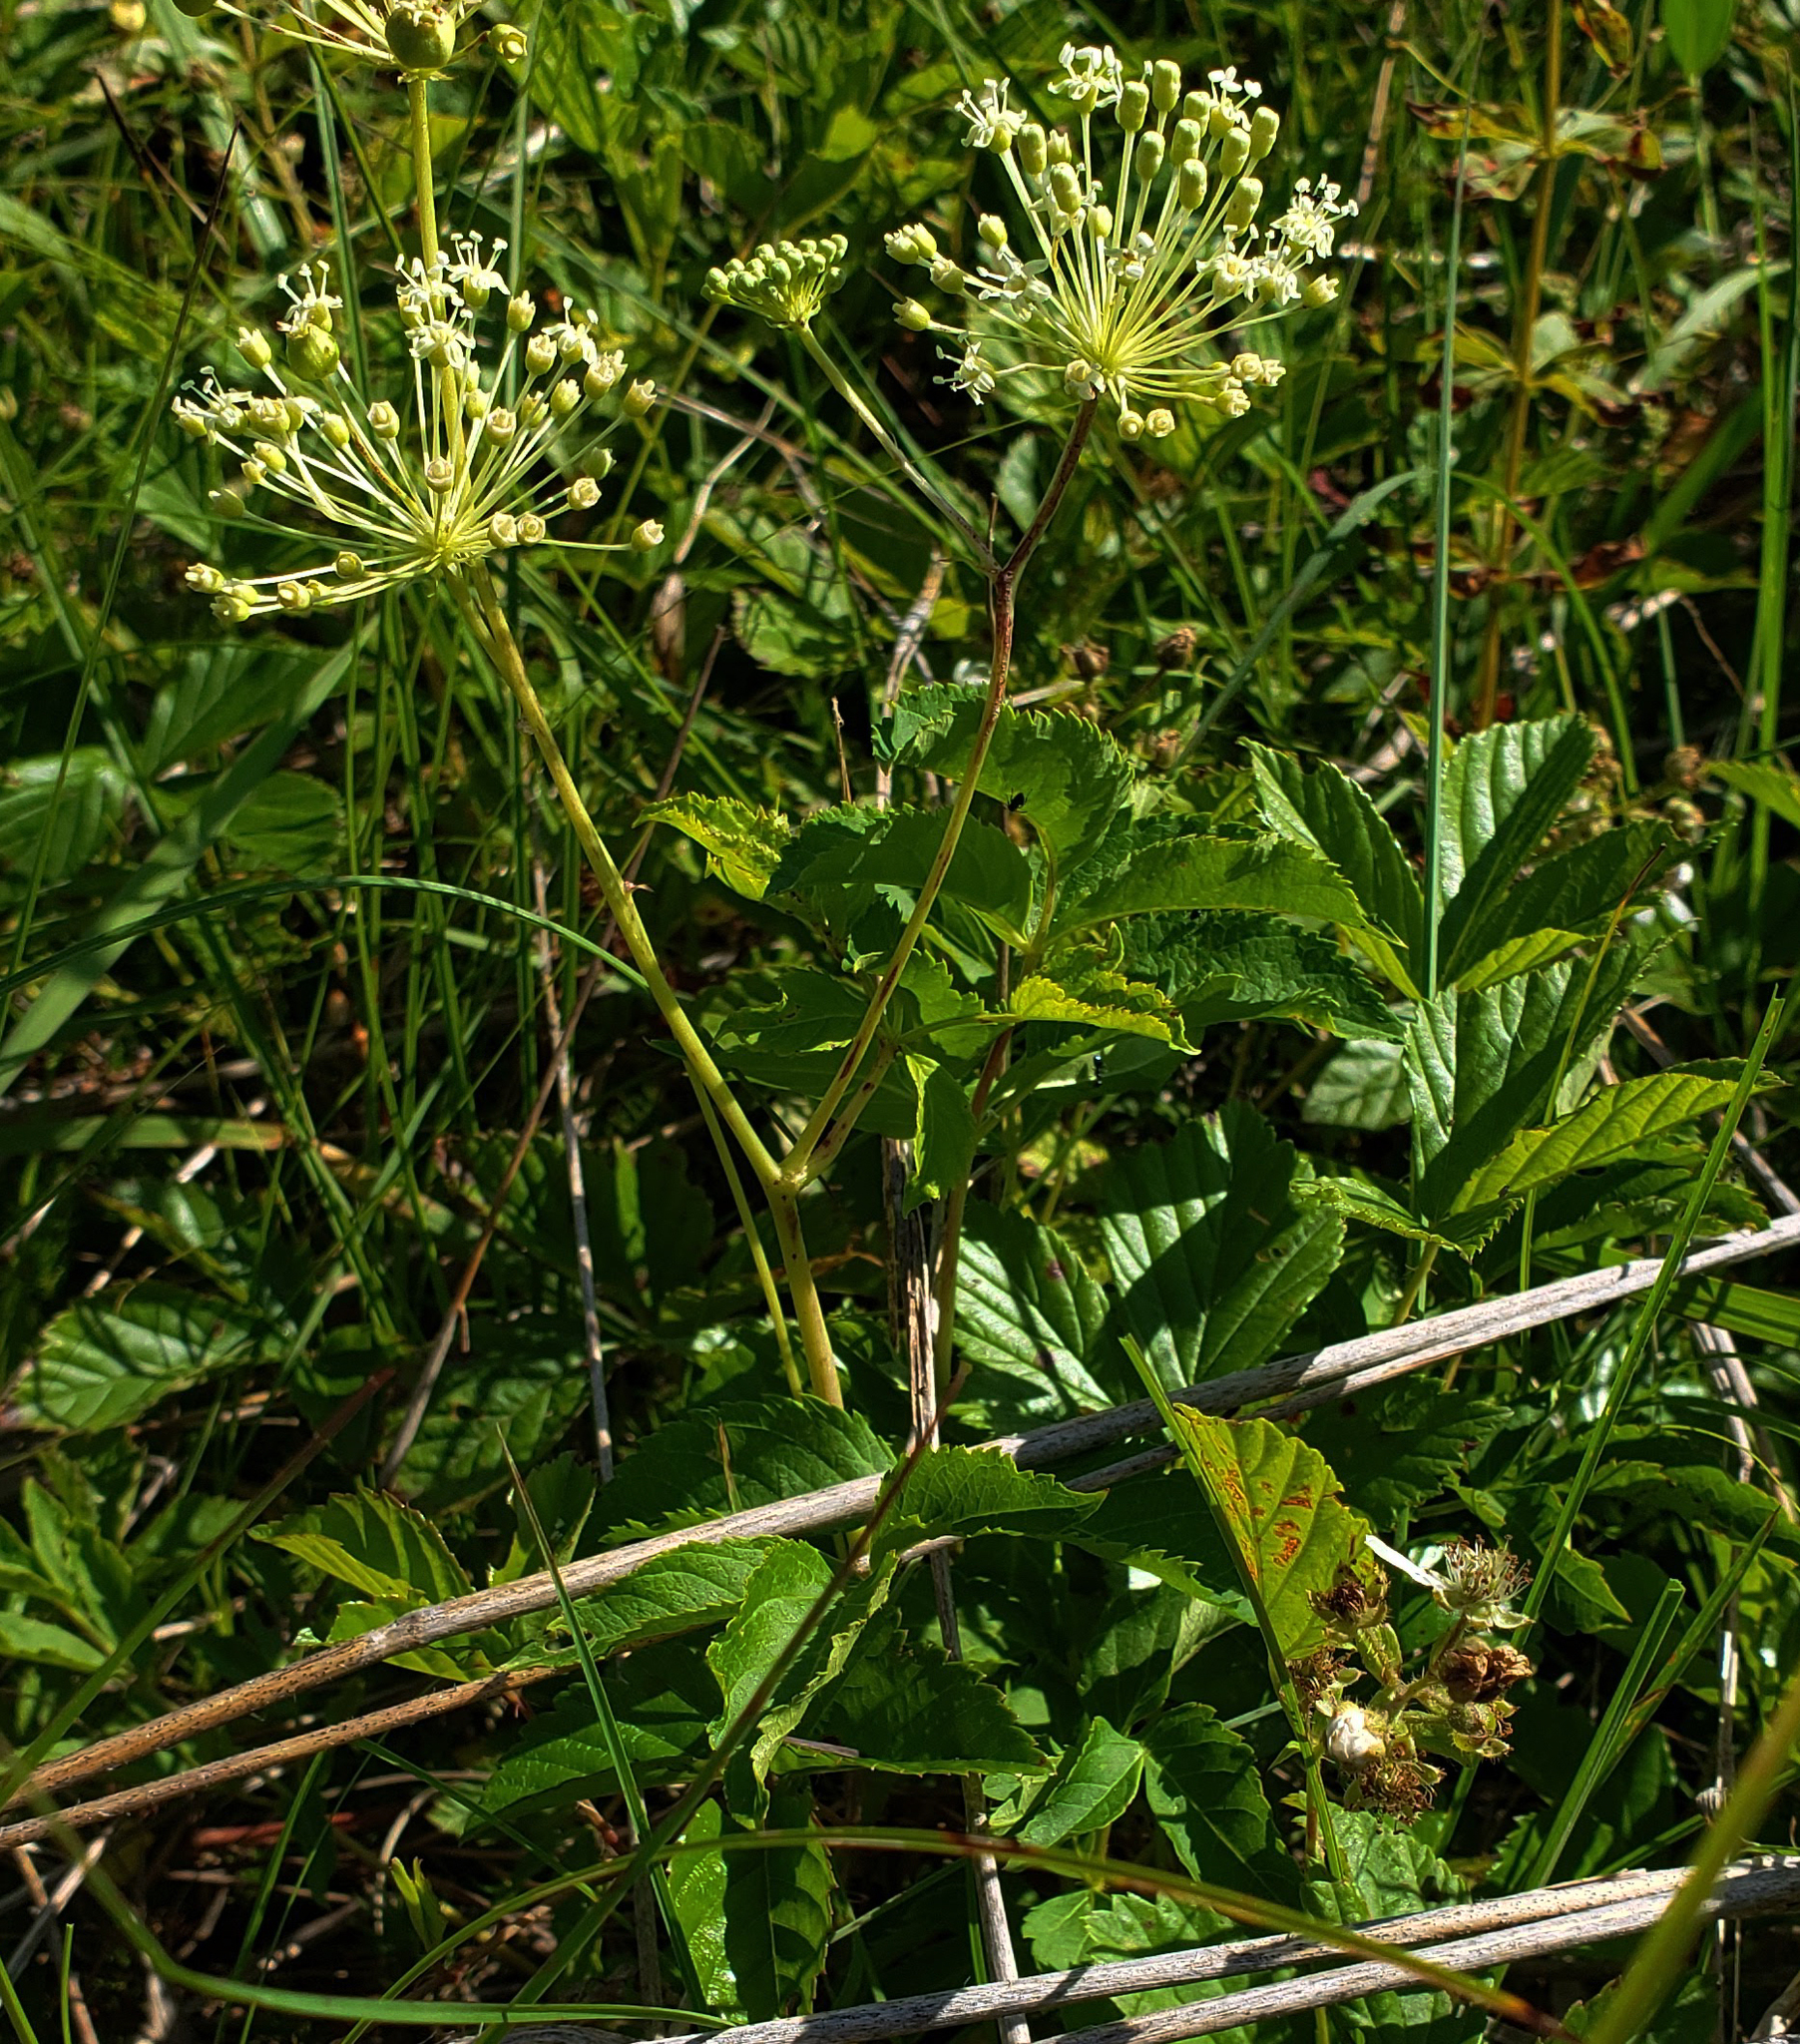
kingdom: Plantae
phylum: Tracheophyta
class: Magnoliopsida
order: Apiales
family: Araliaceae
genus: Aralia
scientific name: Aralia hispida
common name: Bristly sarsaparilla
